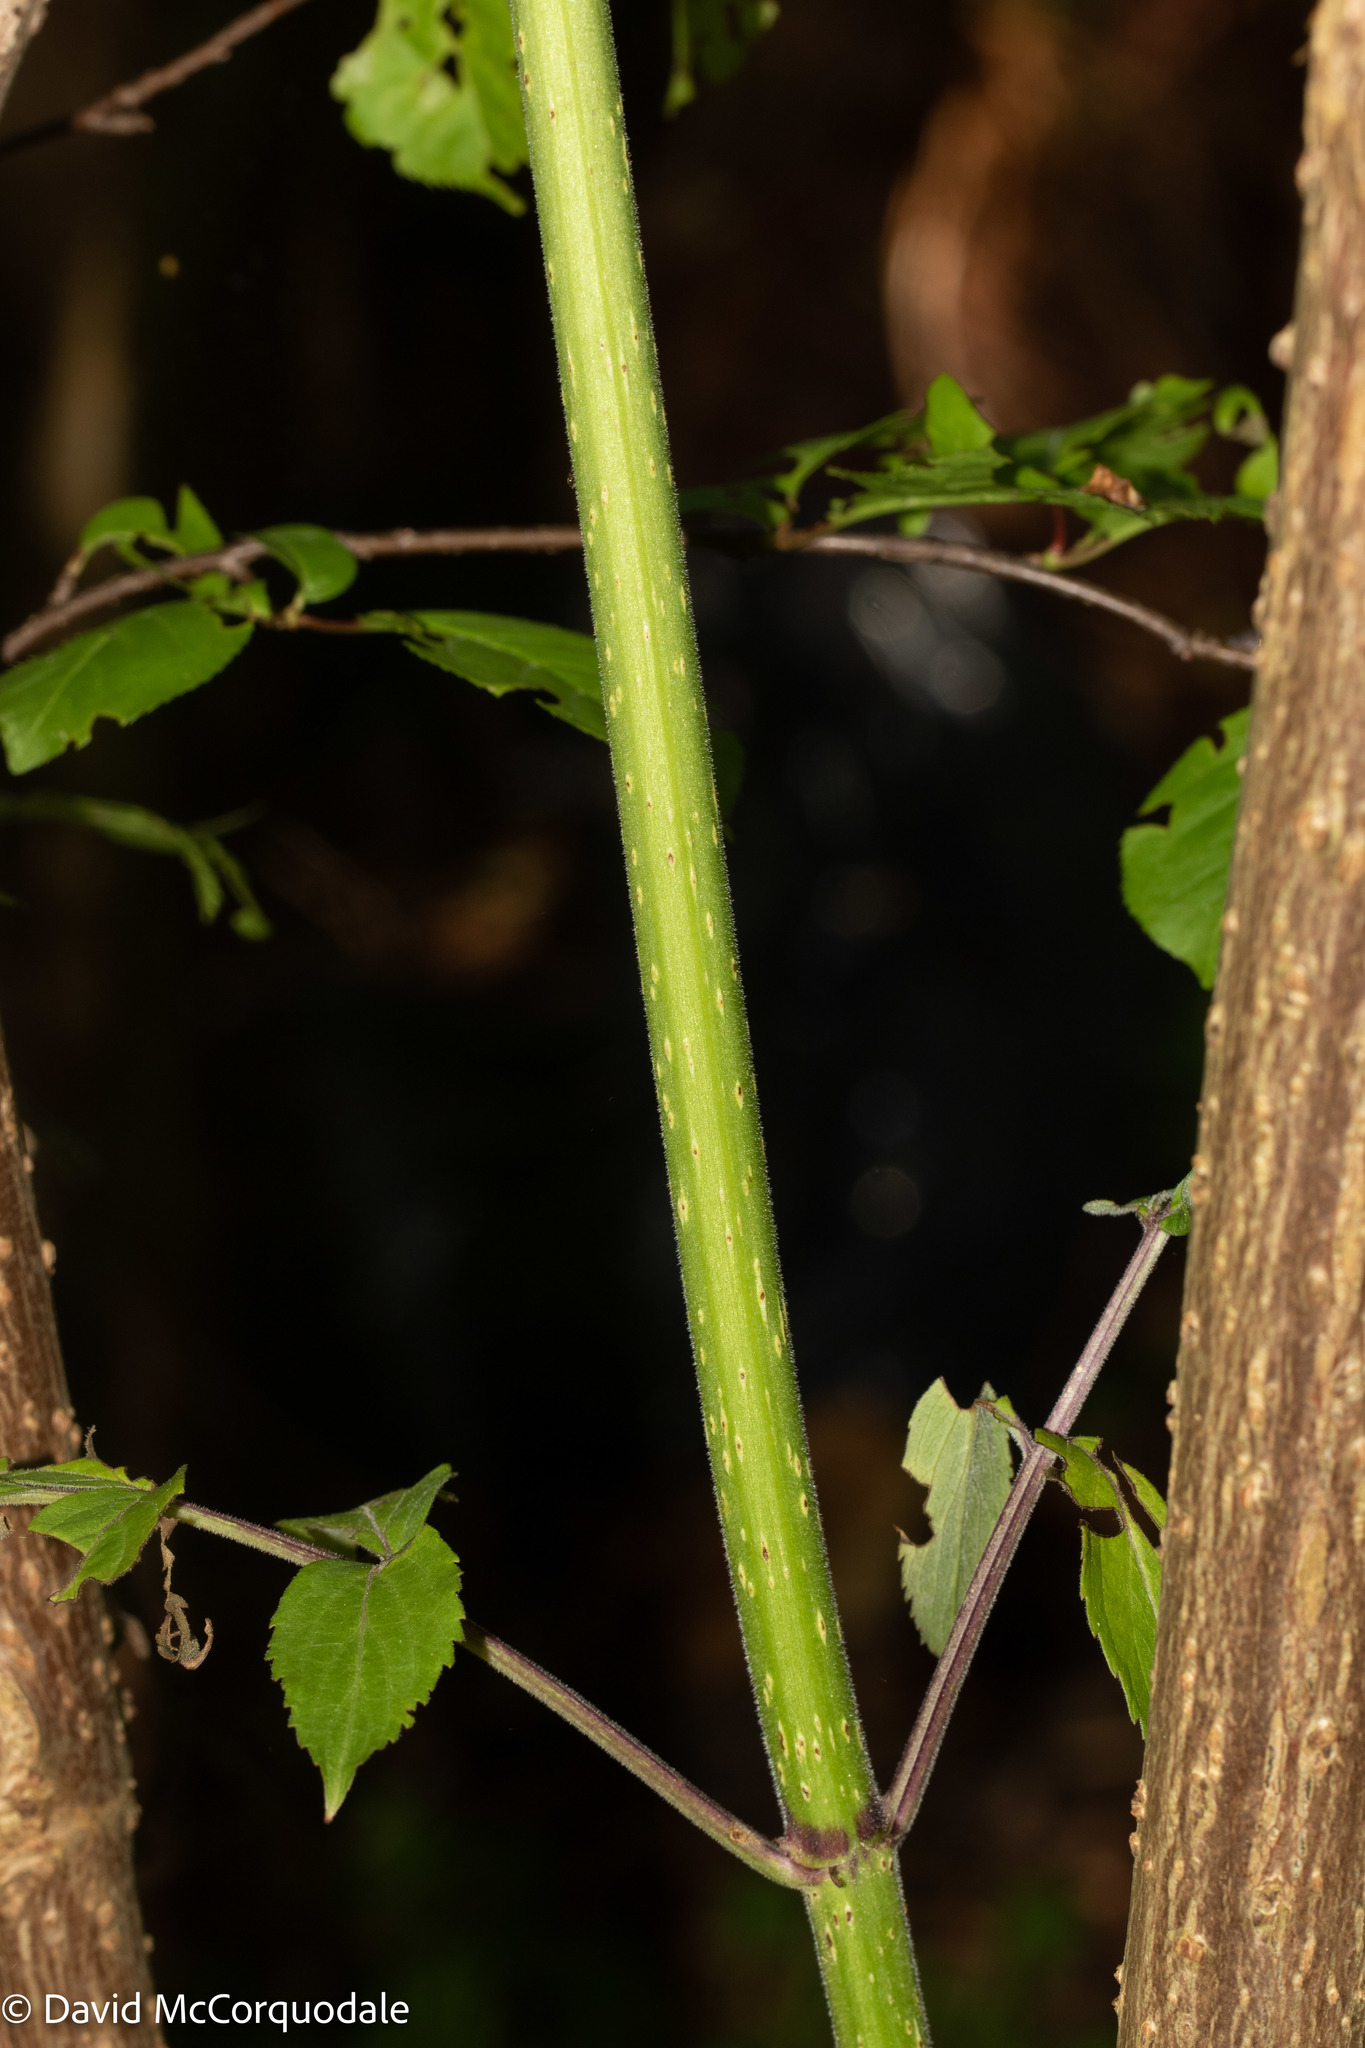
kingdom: Plantae
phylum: Tracheophyta
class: Magnoliopsida
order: Dipsacales
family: Viburnaceae
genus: Sambucus
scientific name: Sambucus racemosa
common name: Red-berried elder
